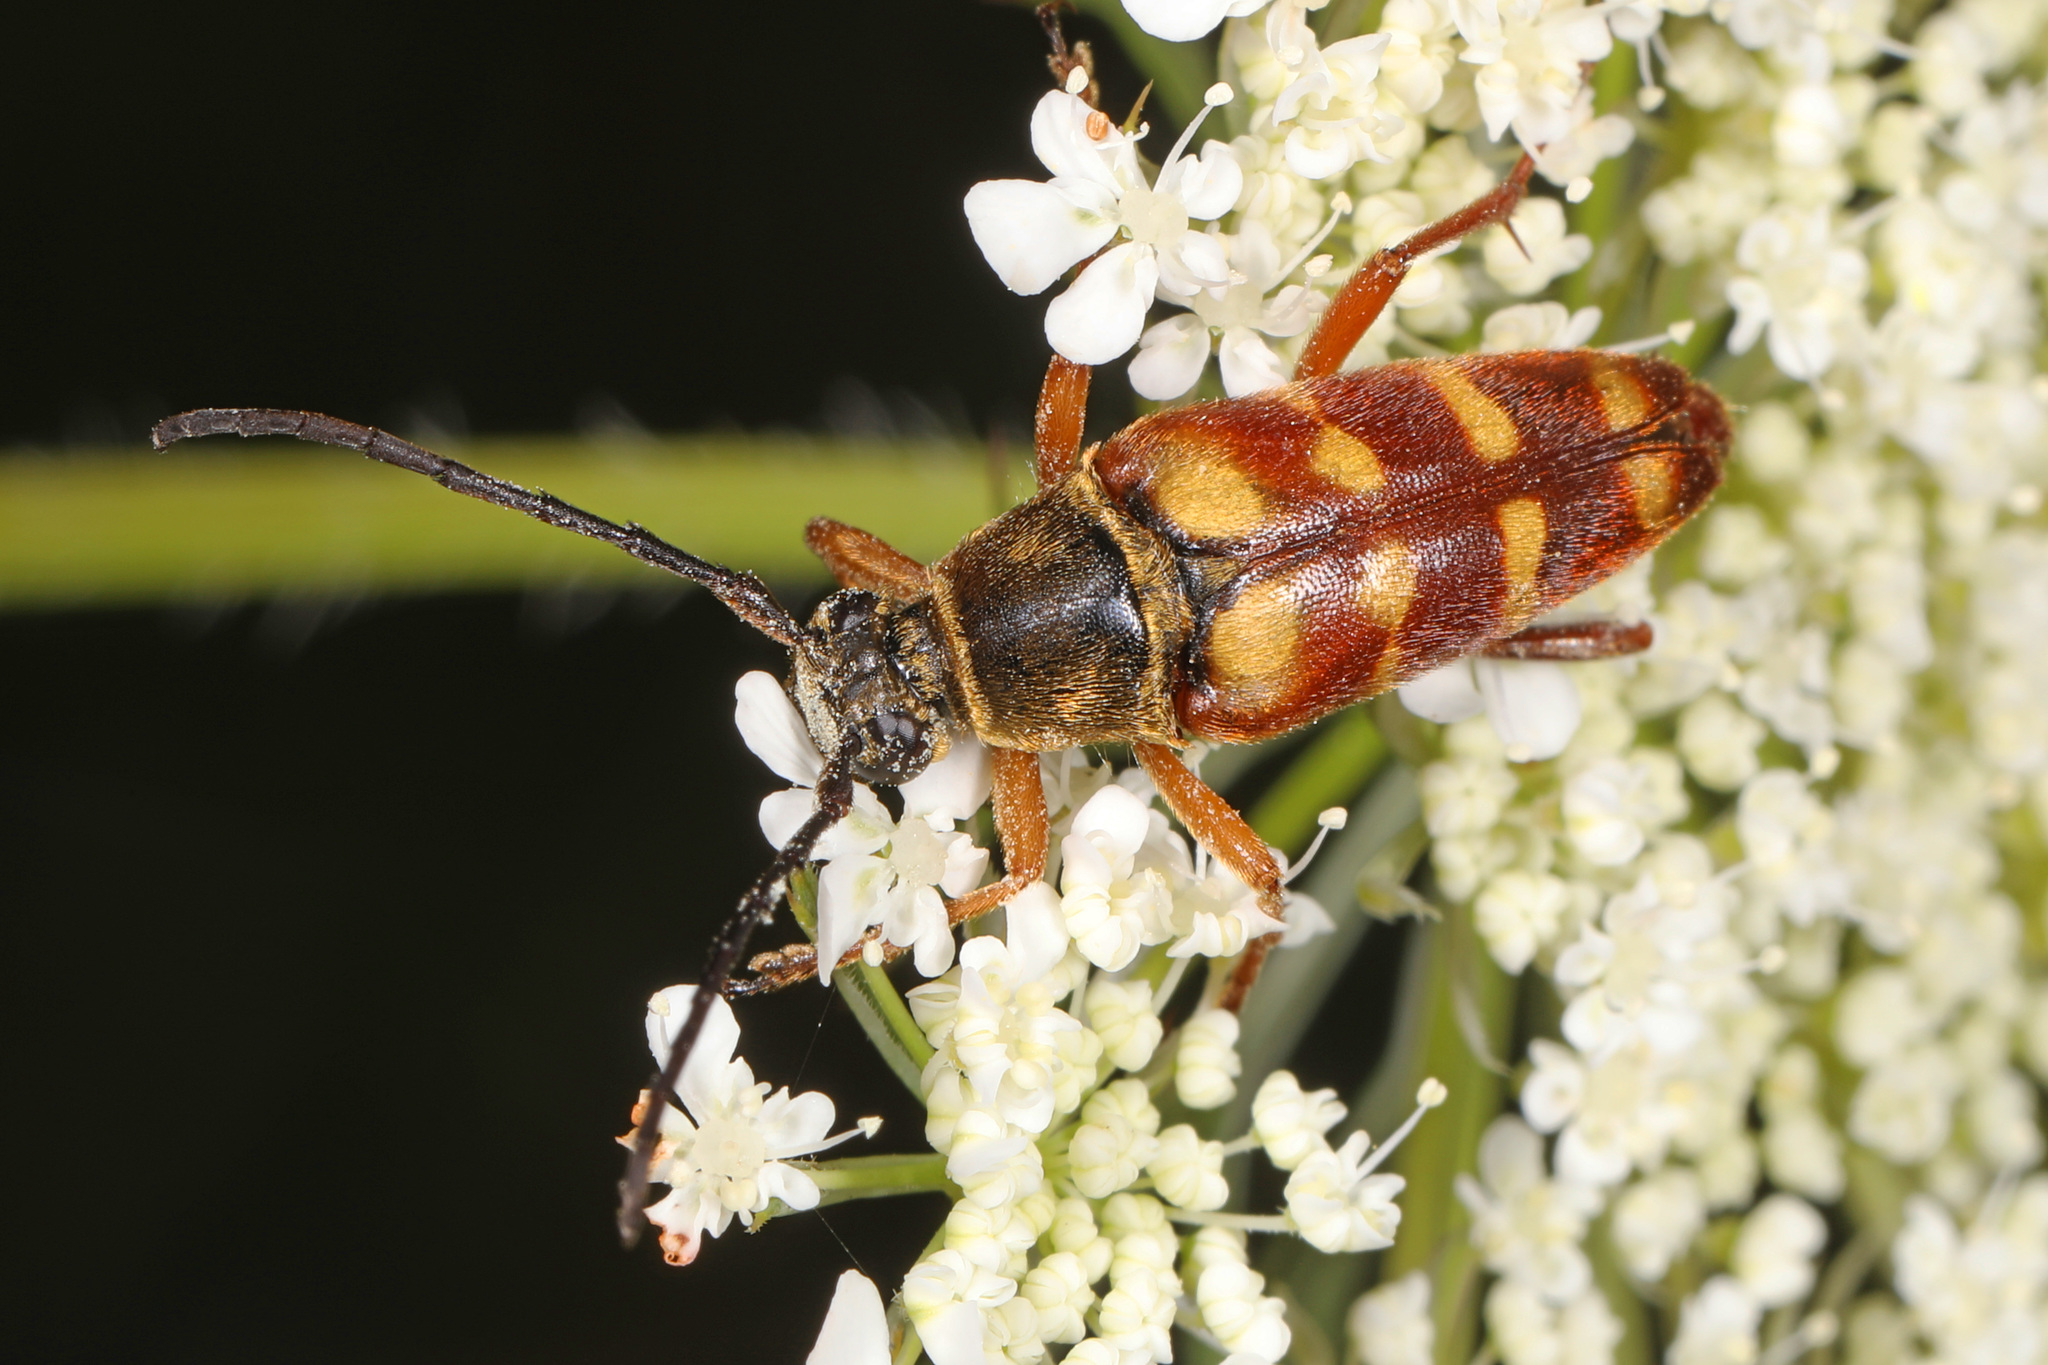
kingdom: Animalia
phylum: Arthropoda
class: Insecta
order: Coleoptera
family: Cerambycidae
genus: Typocerus
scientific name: Typocerus velutinus
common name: Banded longhorn beetle
